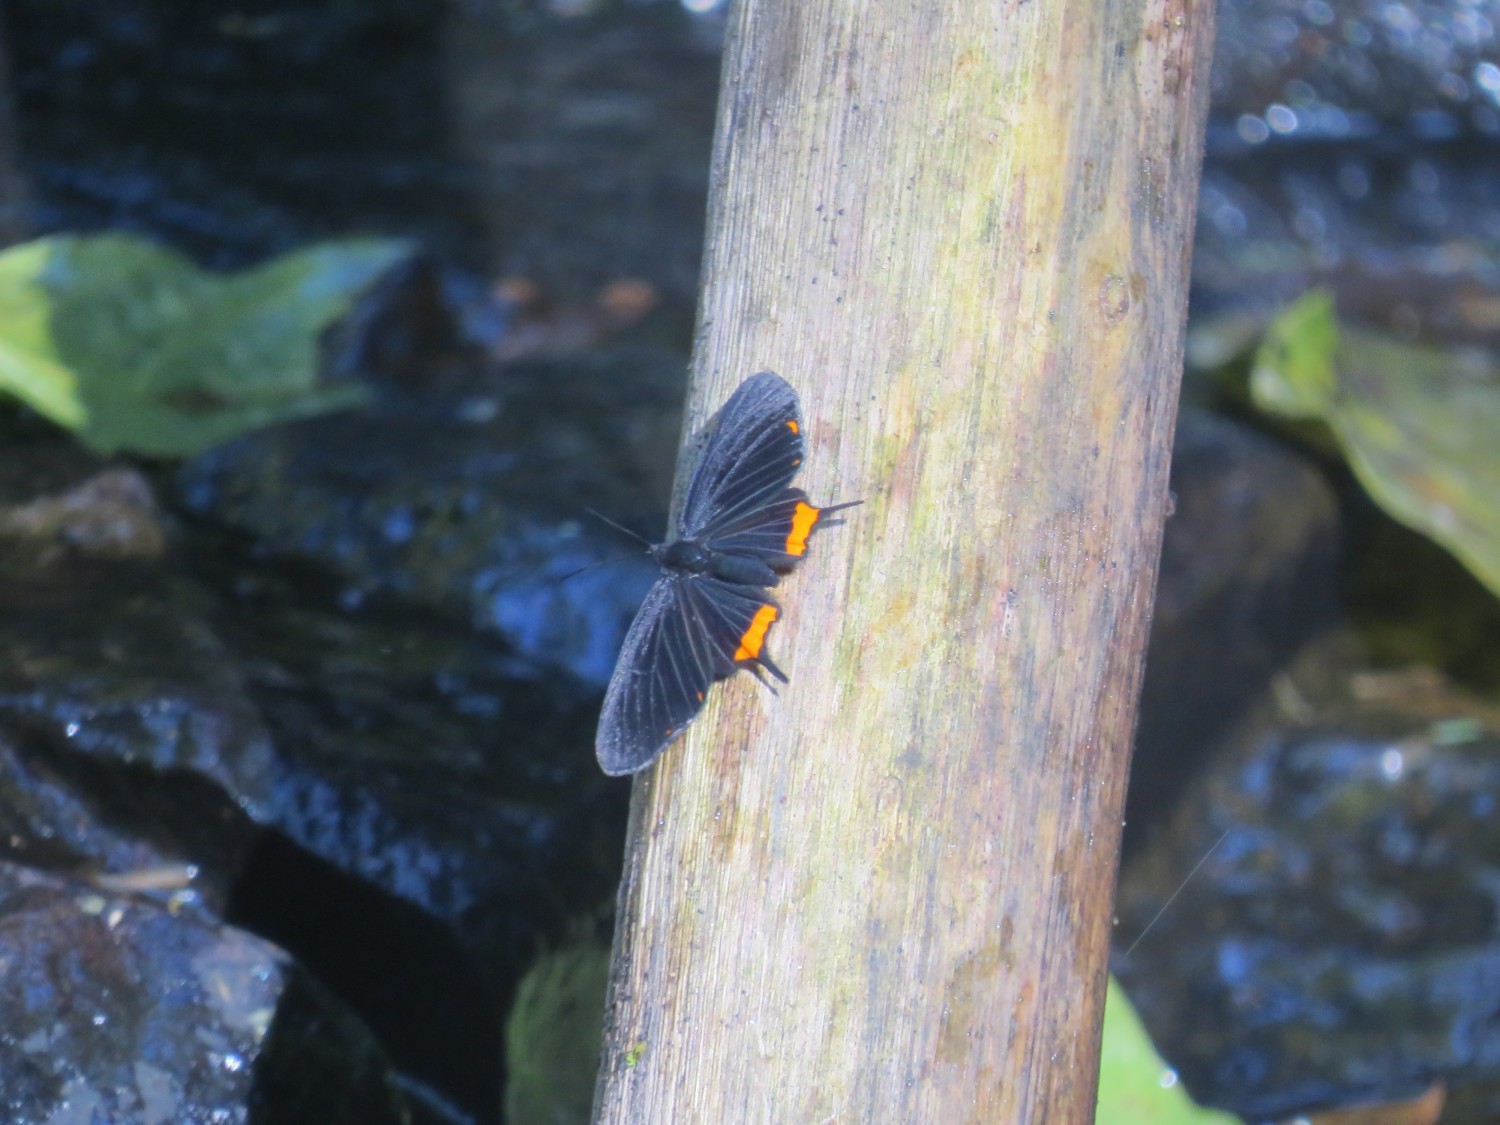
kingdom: Animalia
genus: Barbicornis
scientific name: Barbicornis basilis
